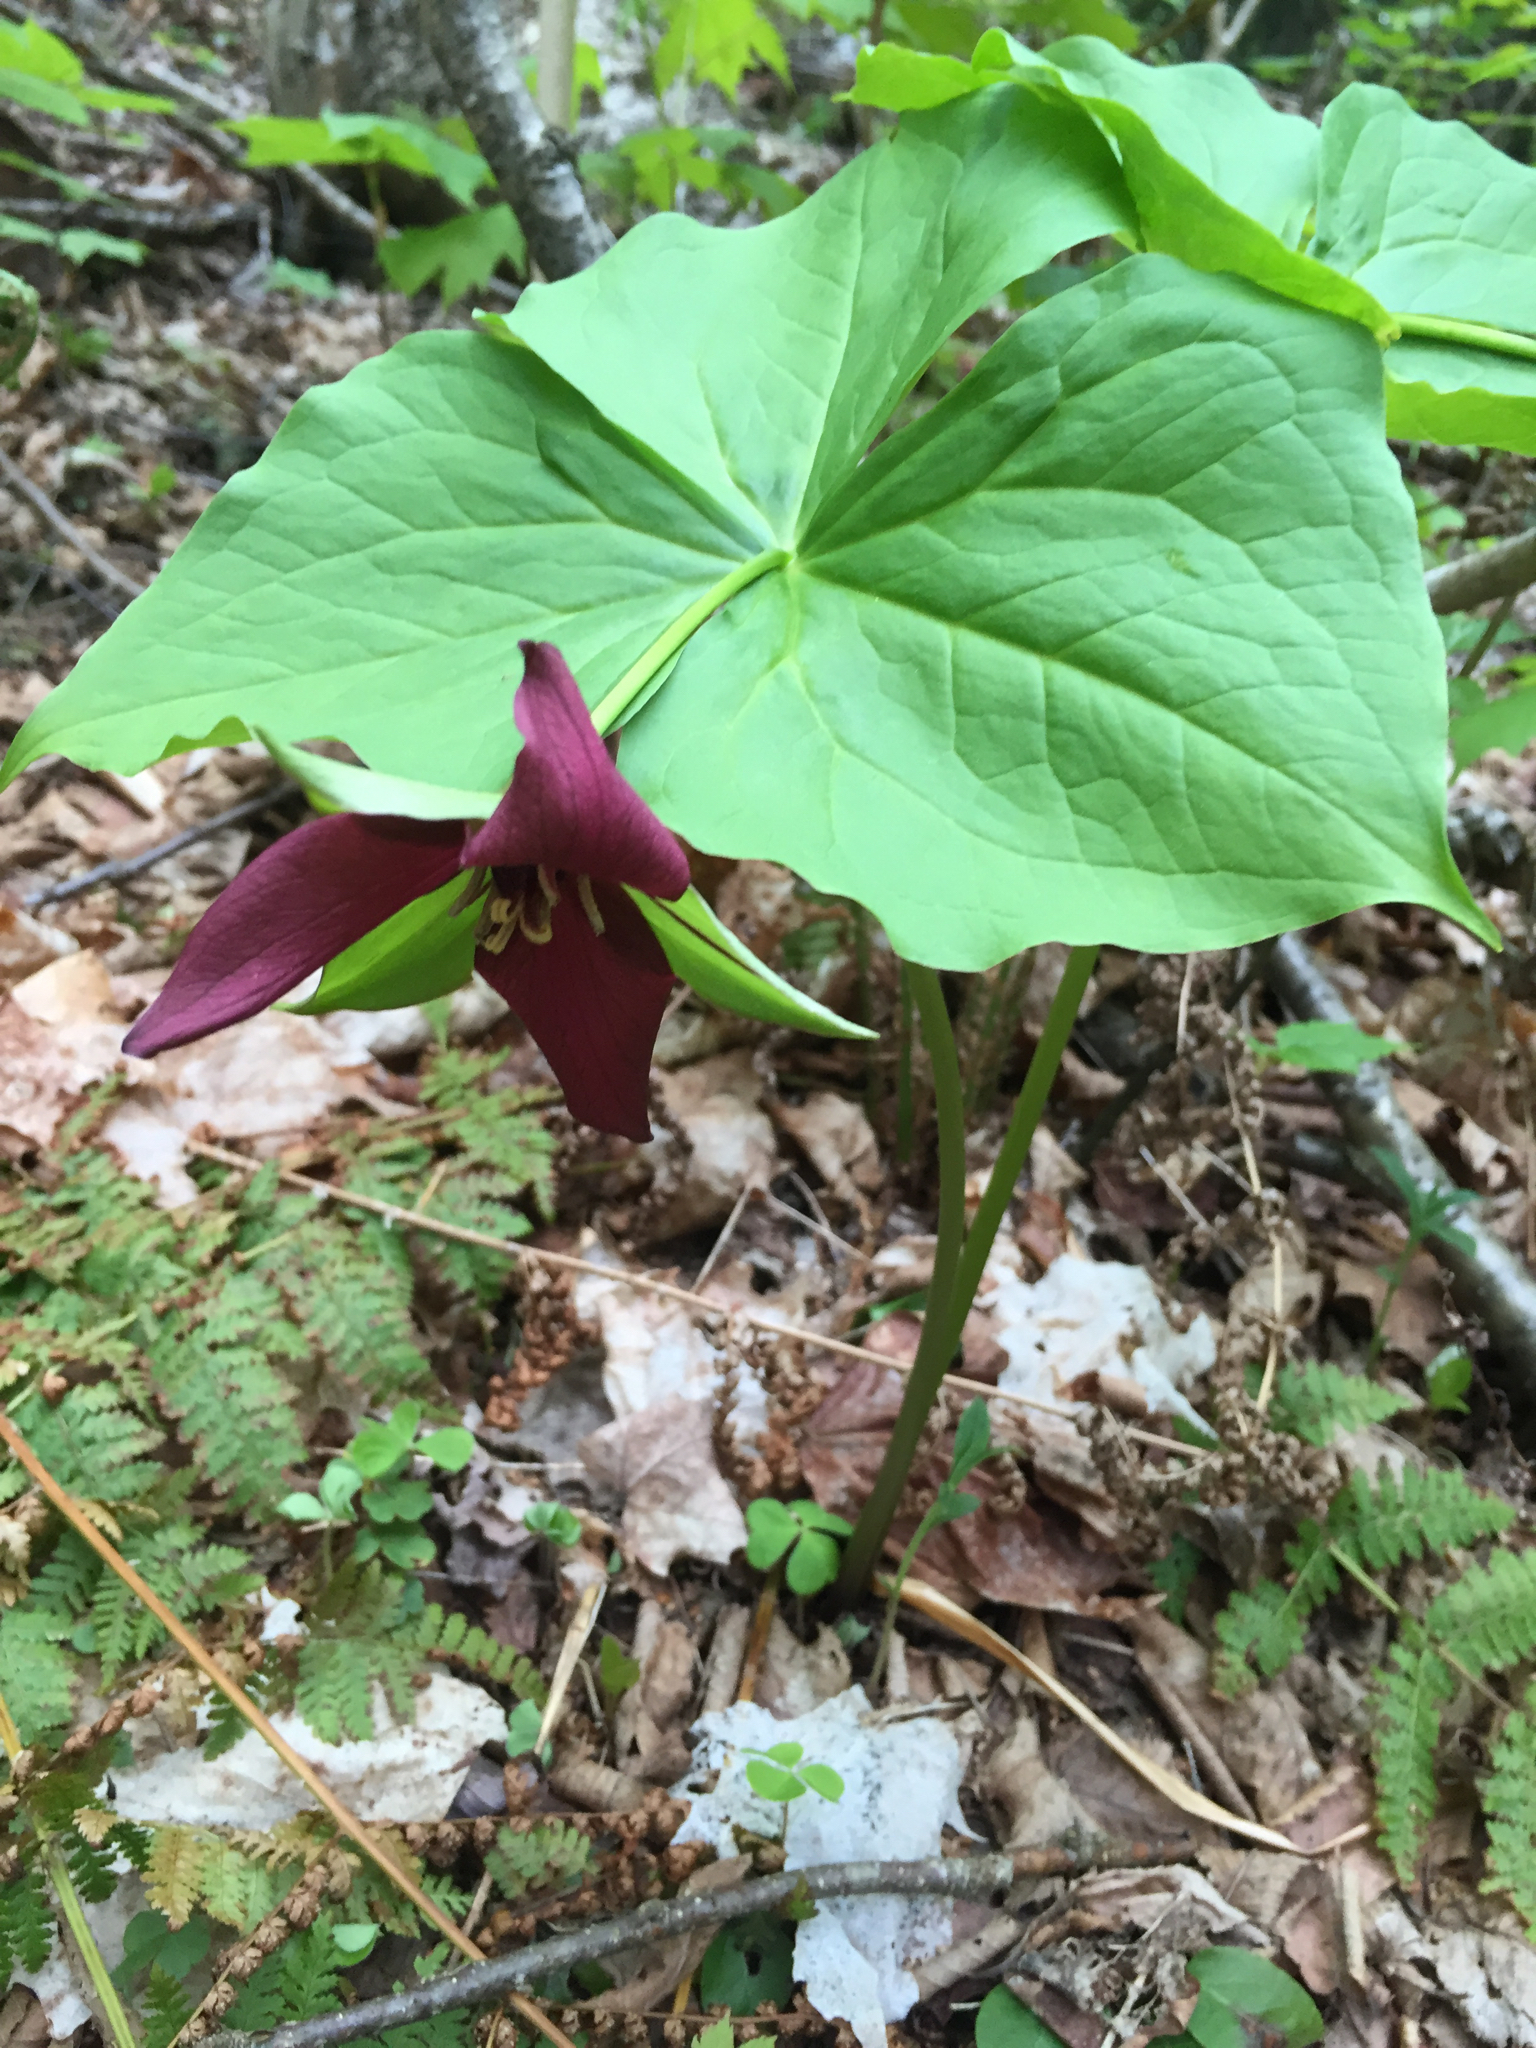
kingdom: Plantae
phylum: Tracheophyta
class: Liliopsida
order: Liliales
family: Melanthiaceae
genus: Trillium
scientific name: Trillium erectum
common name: Purple trillium
